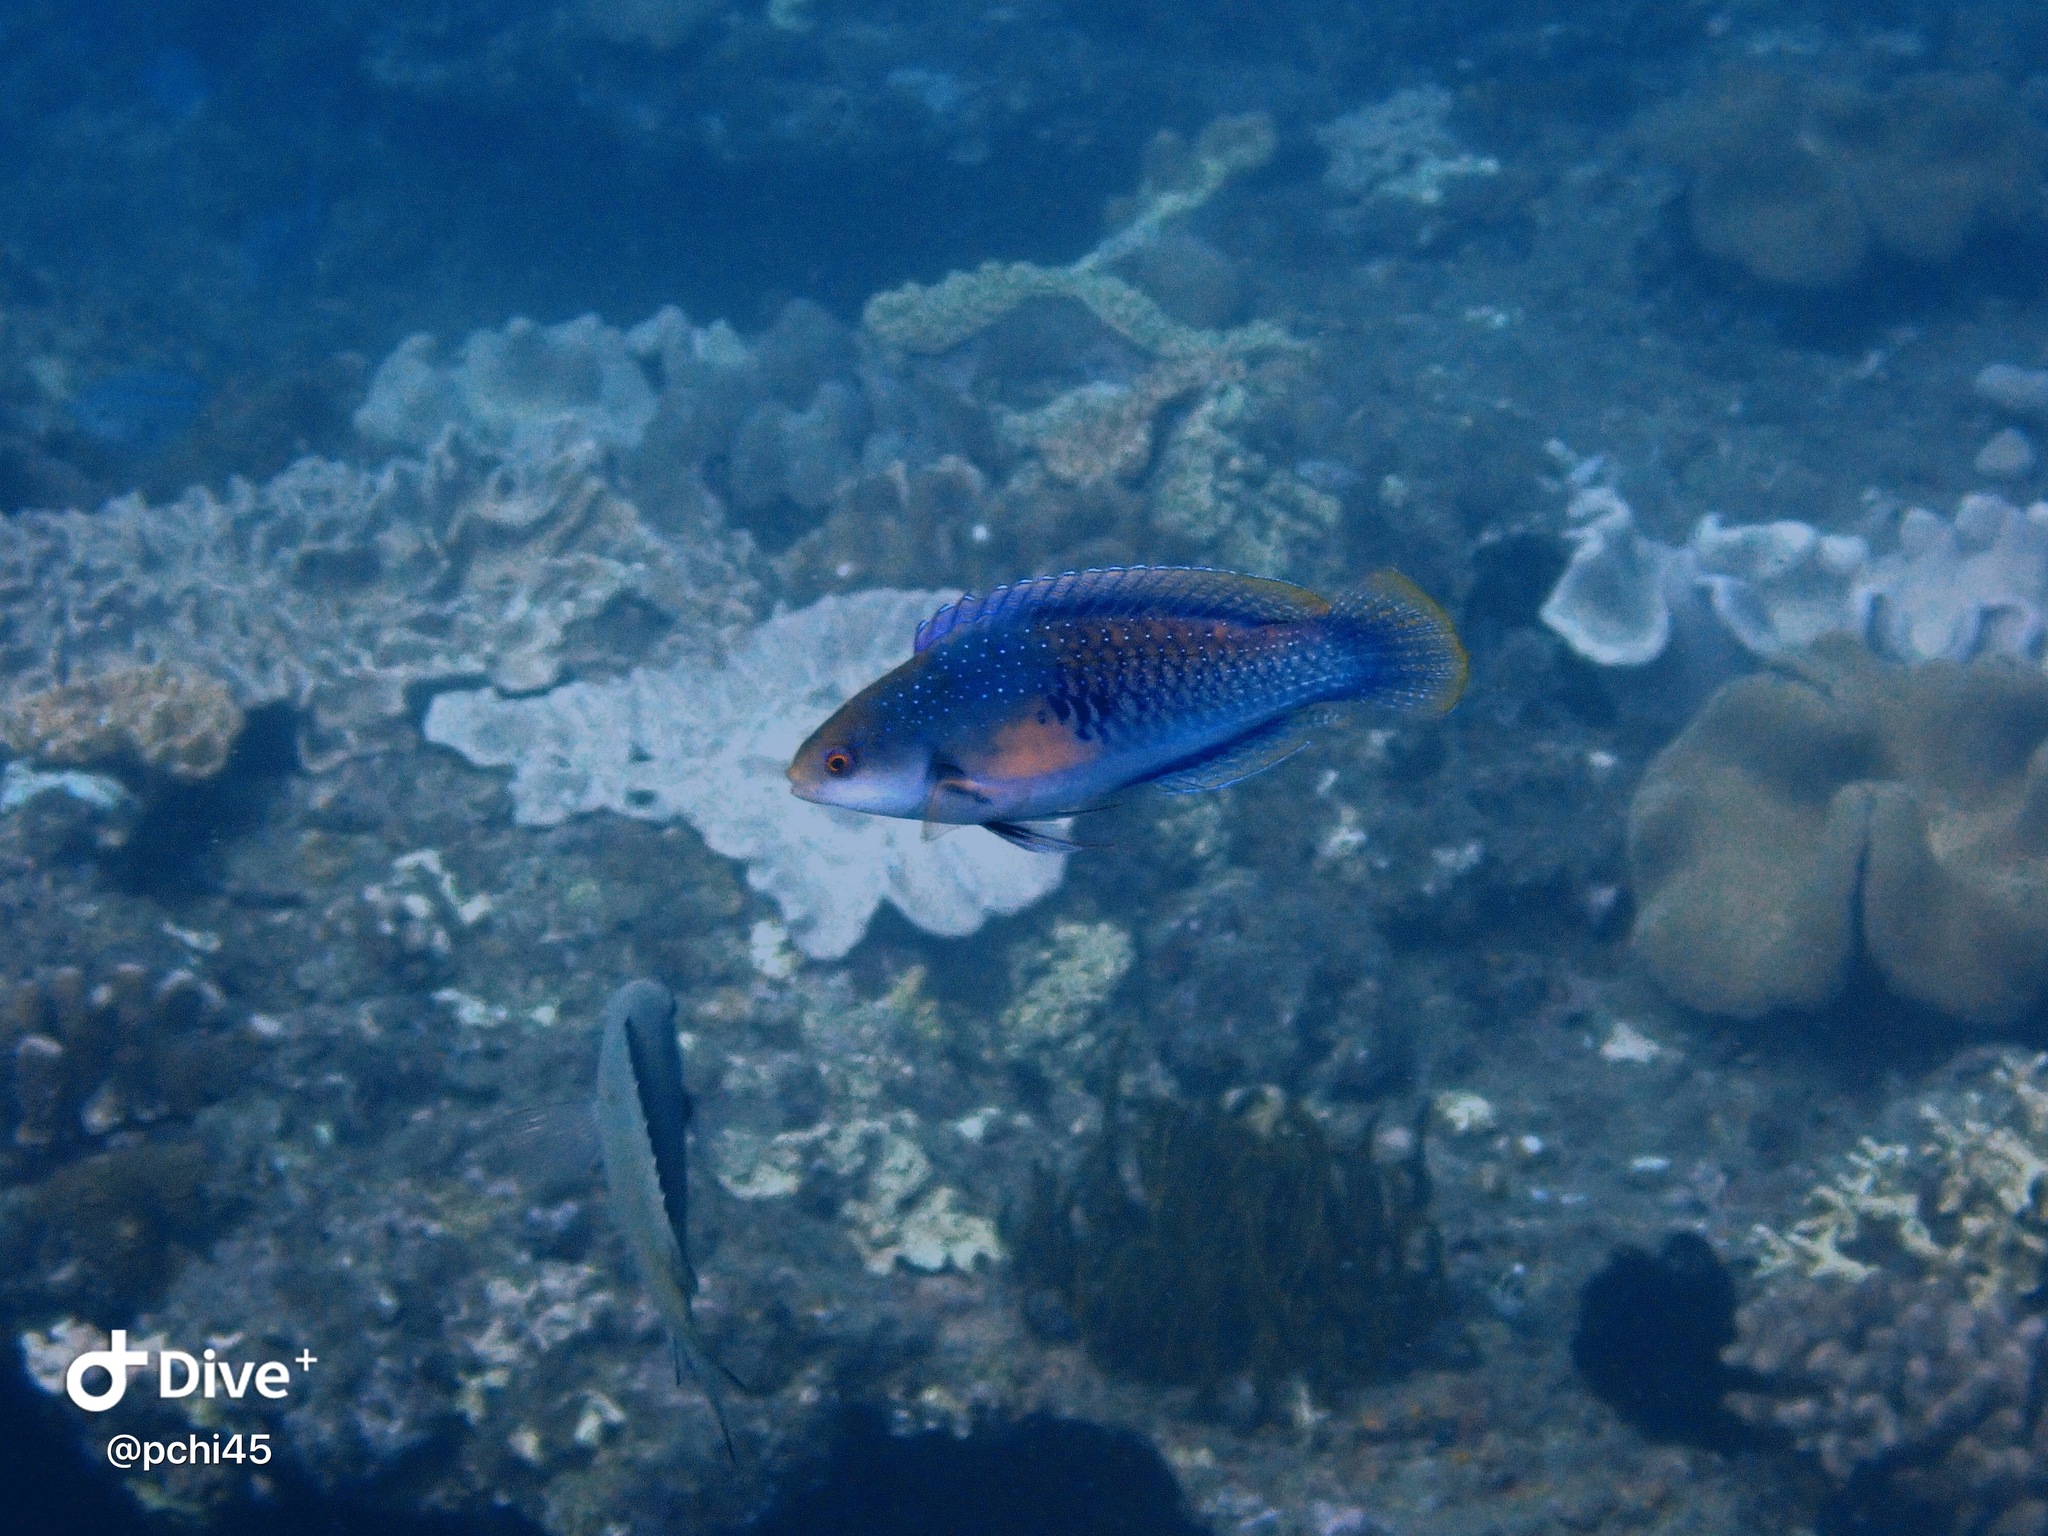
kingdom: Animalia
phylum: Chordata
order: Perciformes
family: Labridae
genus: Cirrhilabrus
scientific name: Cirrhilabrus cyanopleura
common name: Coralline wrasse
